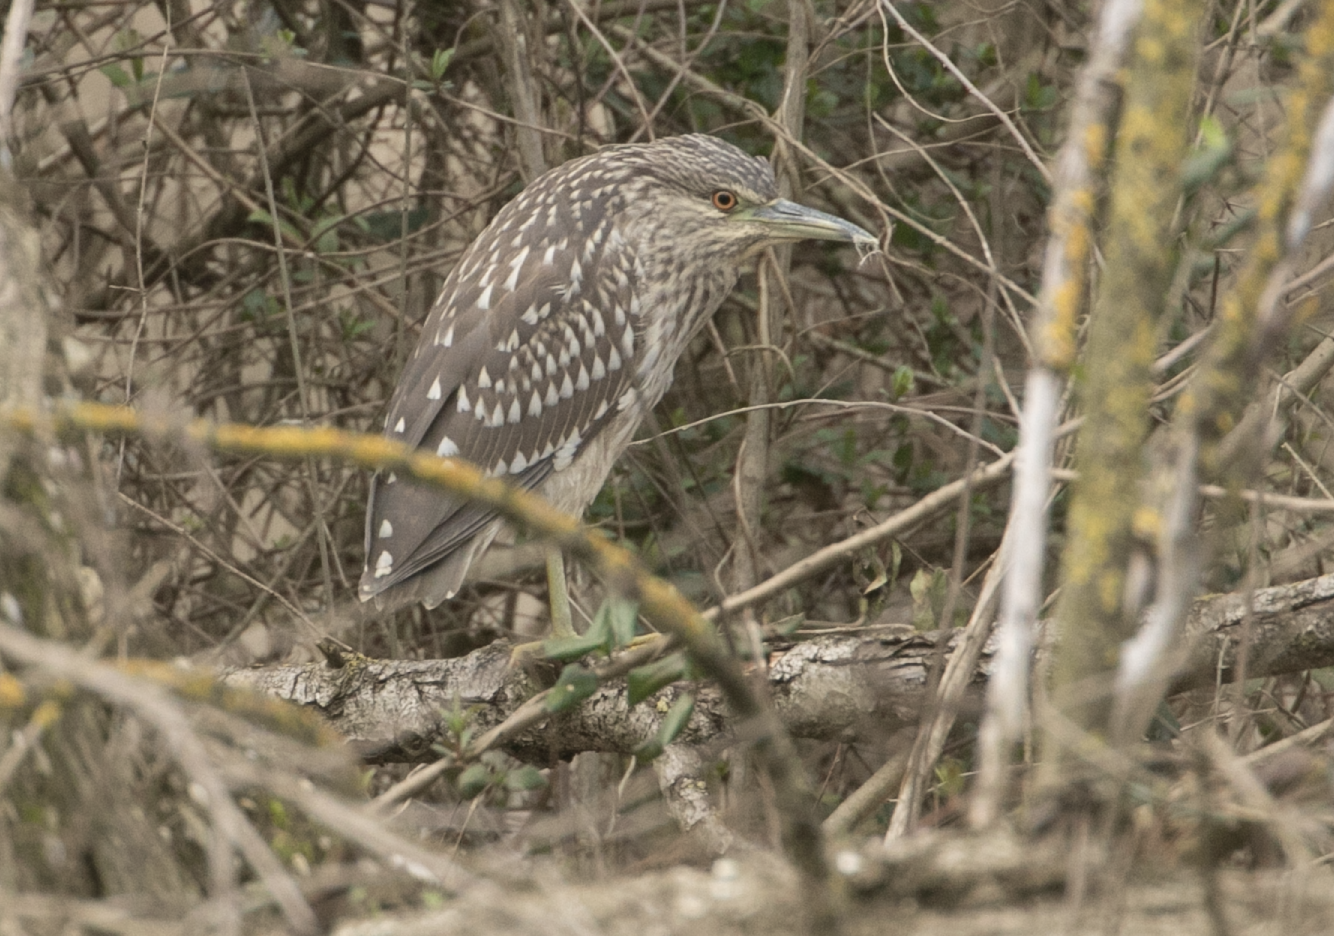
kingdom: Animalia
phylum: Chordata
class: Aves
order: Pelecaniformes
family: Ardeidae
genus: Nycticorax
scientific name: Nycticorax nycticorax
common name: Black-crowned night heron
